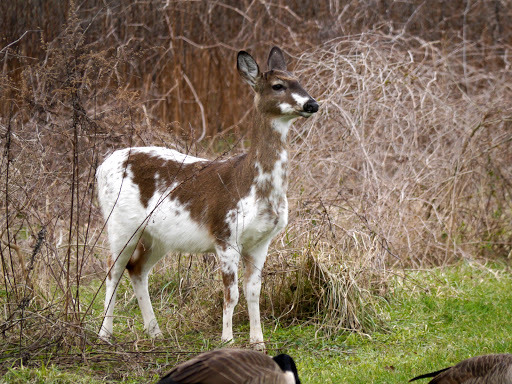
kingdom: Animalia
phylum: Chordata
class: Mammalia
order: Artiodactyla
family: Cervidae
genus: Odocoileus
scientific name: Odocoileus virginianus
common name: White-tailed deer
